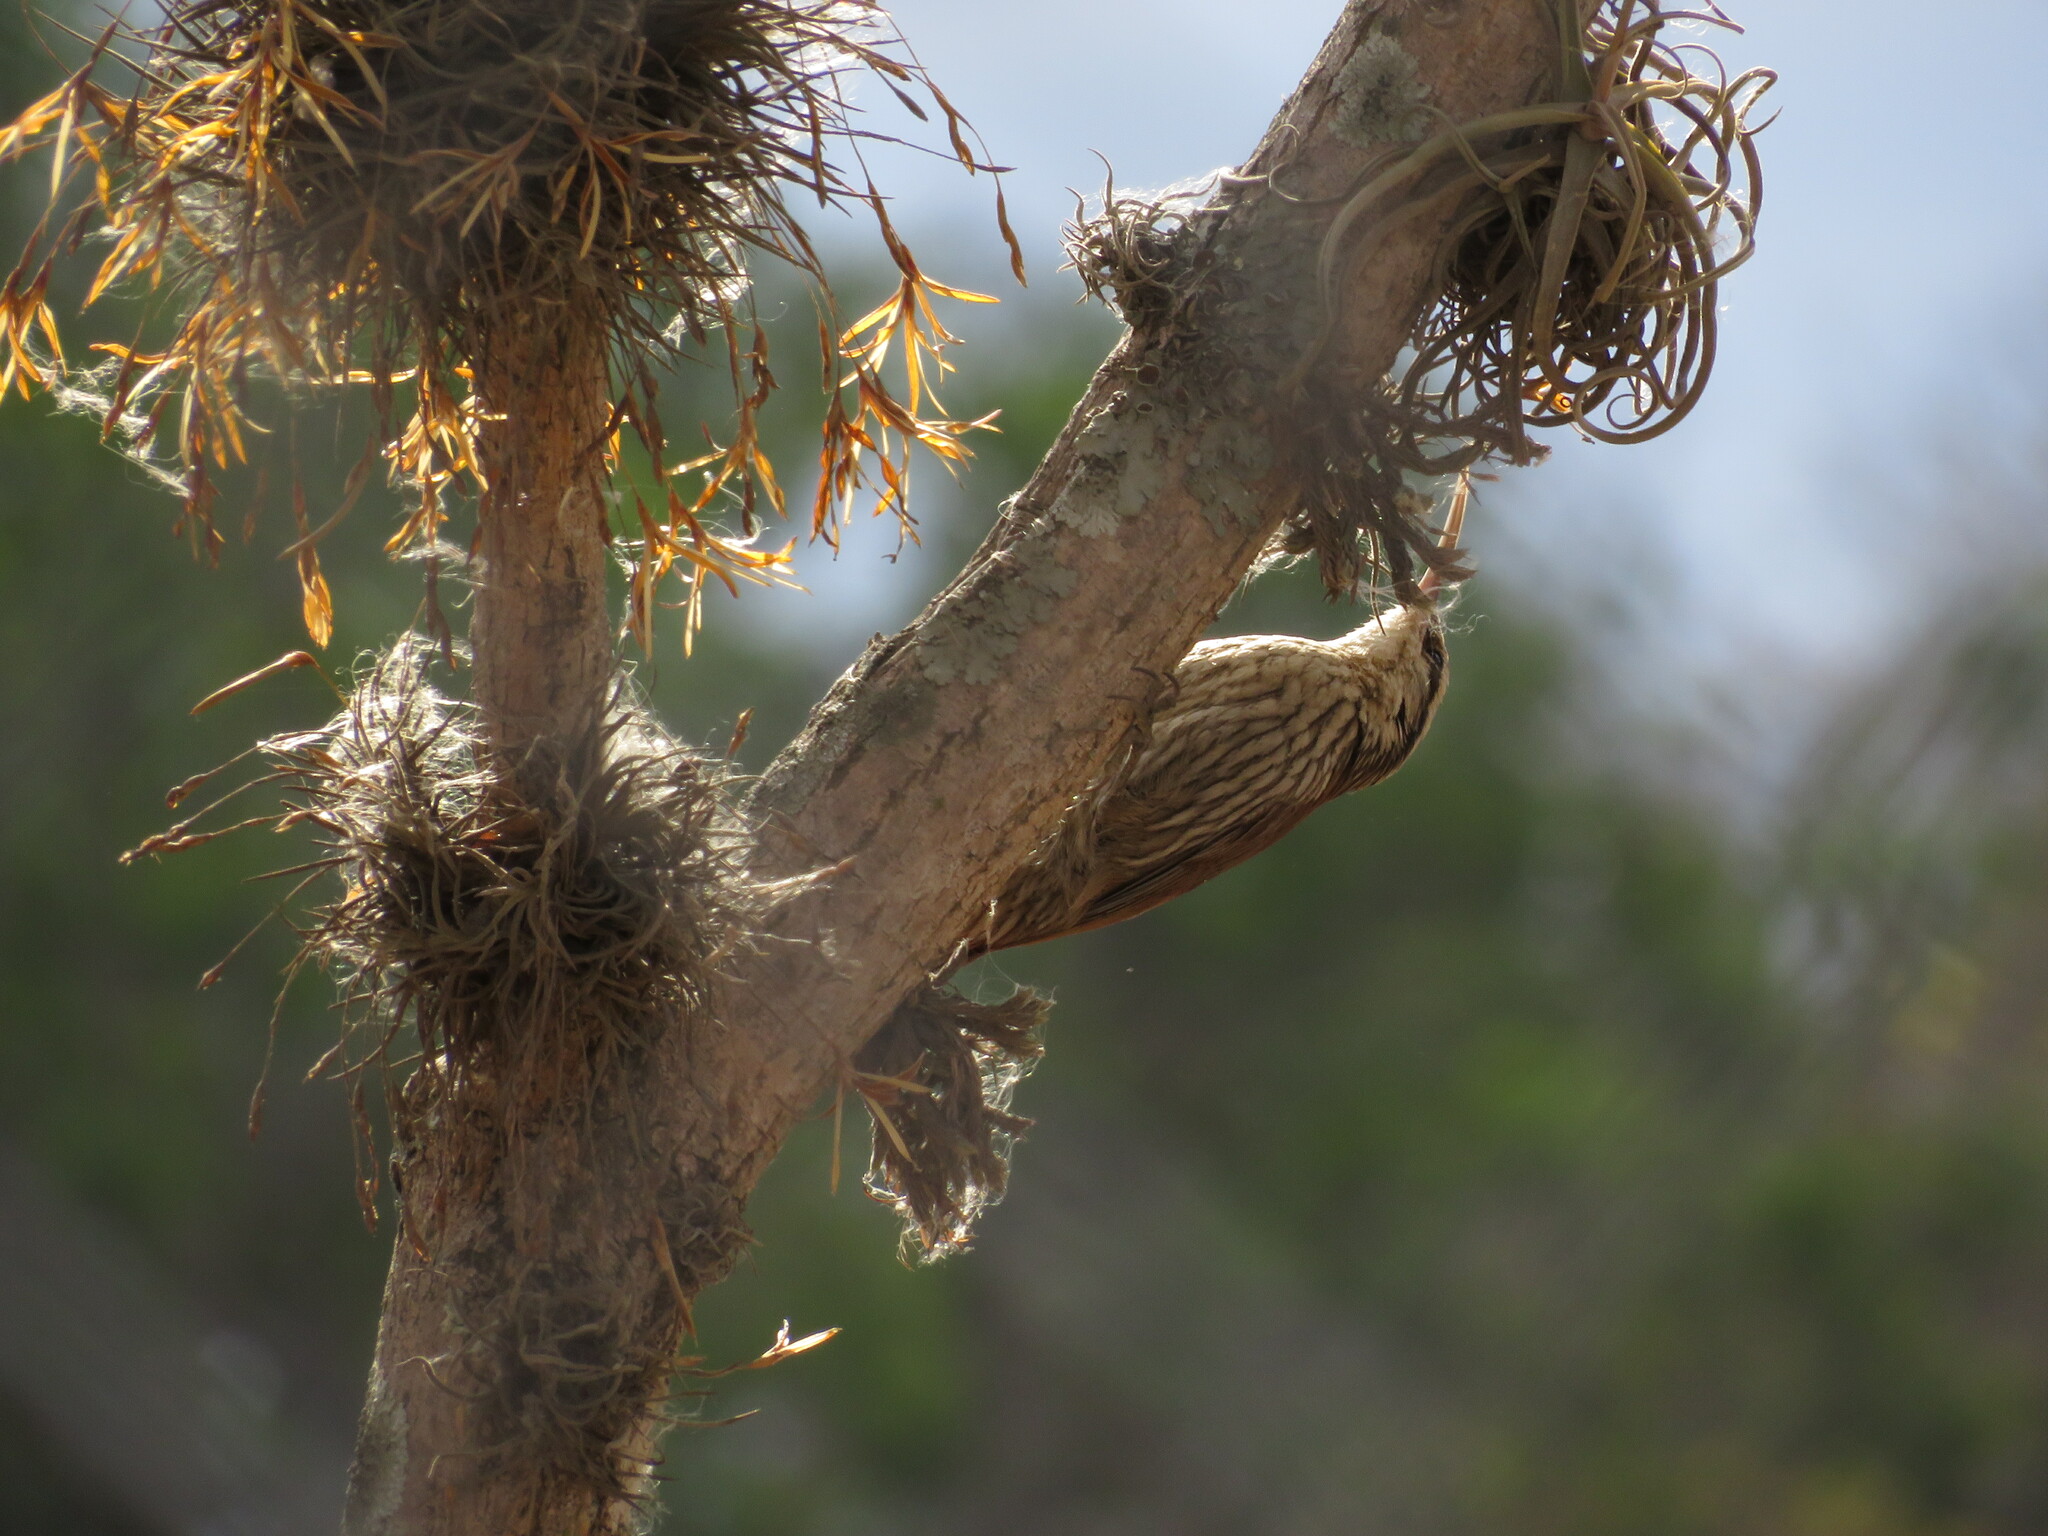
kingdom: Animalia
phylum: Chordata
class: Aves
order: Passeriformes
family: Furnariidae
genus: Lepidocolaptes
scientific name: Lepidocolaptes angustirostris
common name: Narrow-billed woodcreeper
